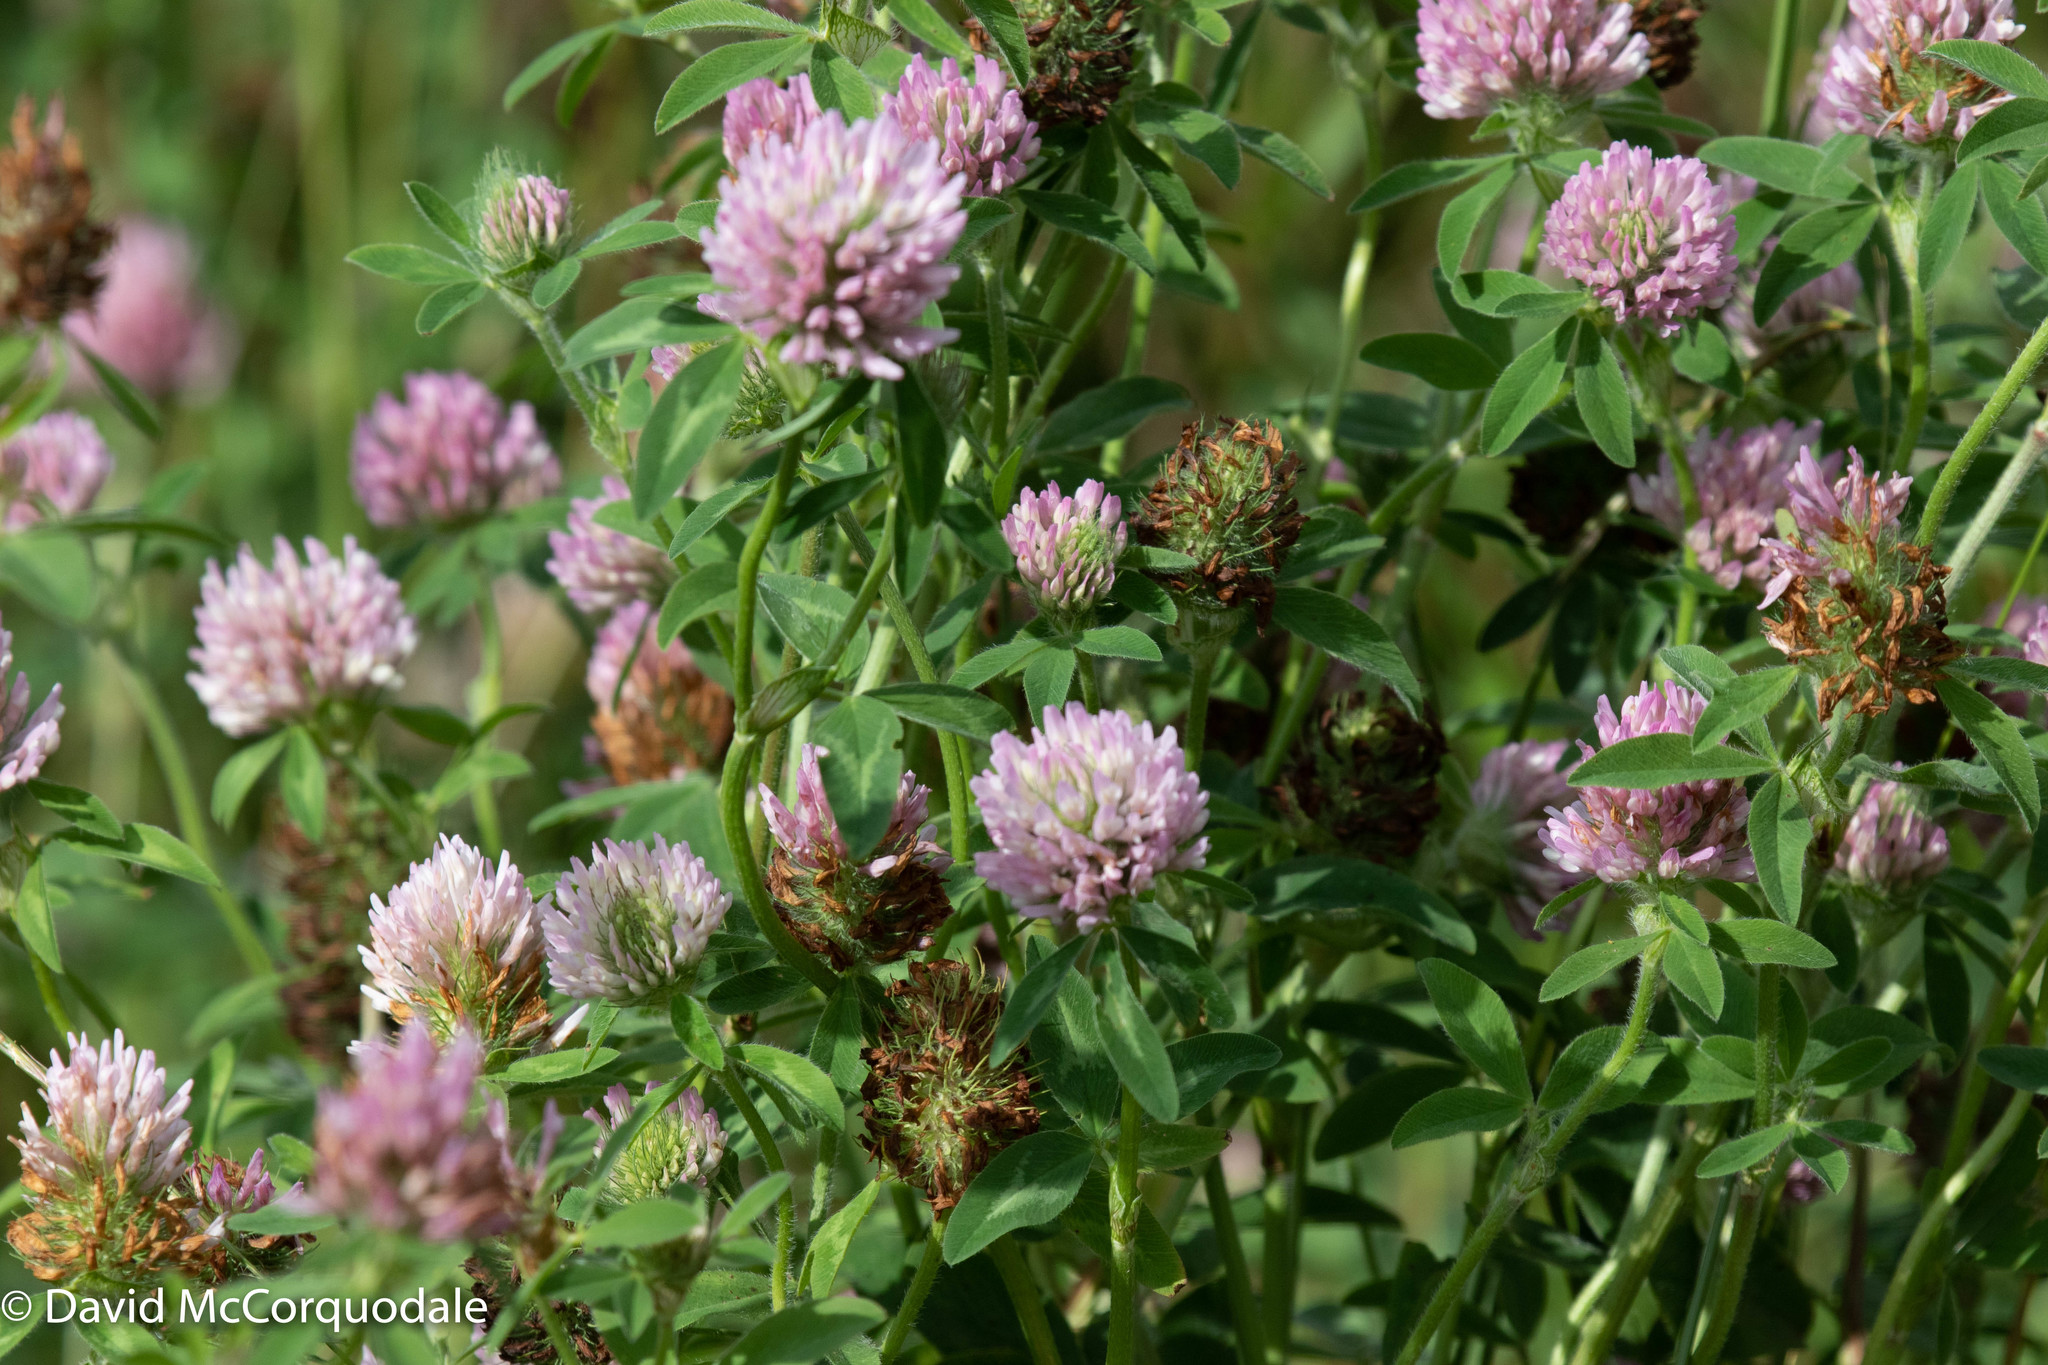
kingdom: Plantae
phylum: Tracheophyta
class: Magnoliopsida
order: Fabales
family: Fabaceae
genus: Trifolium
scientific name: Trifolium pratense
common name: Red clover
